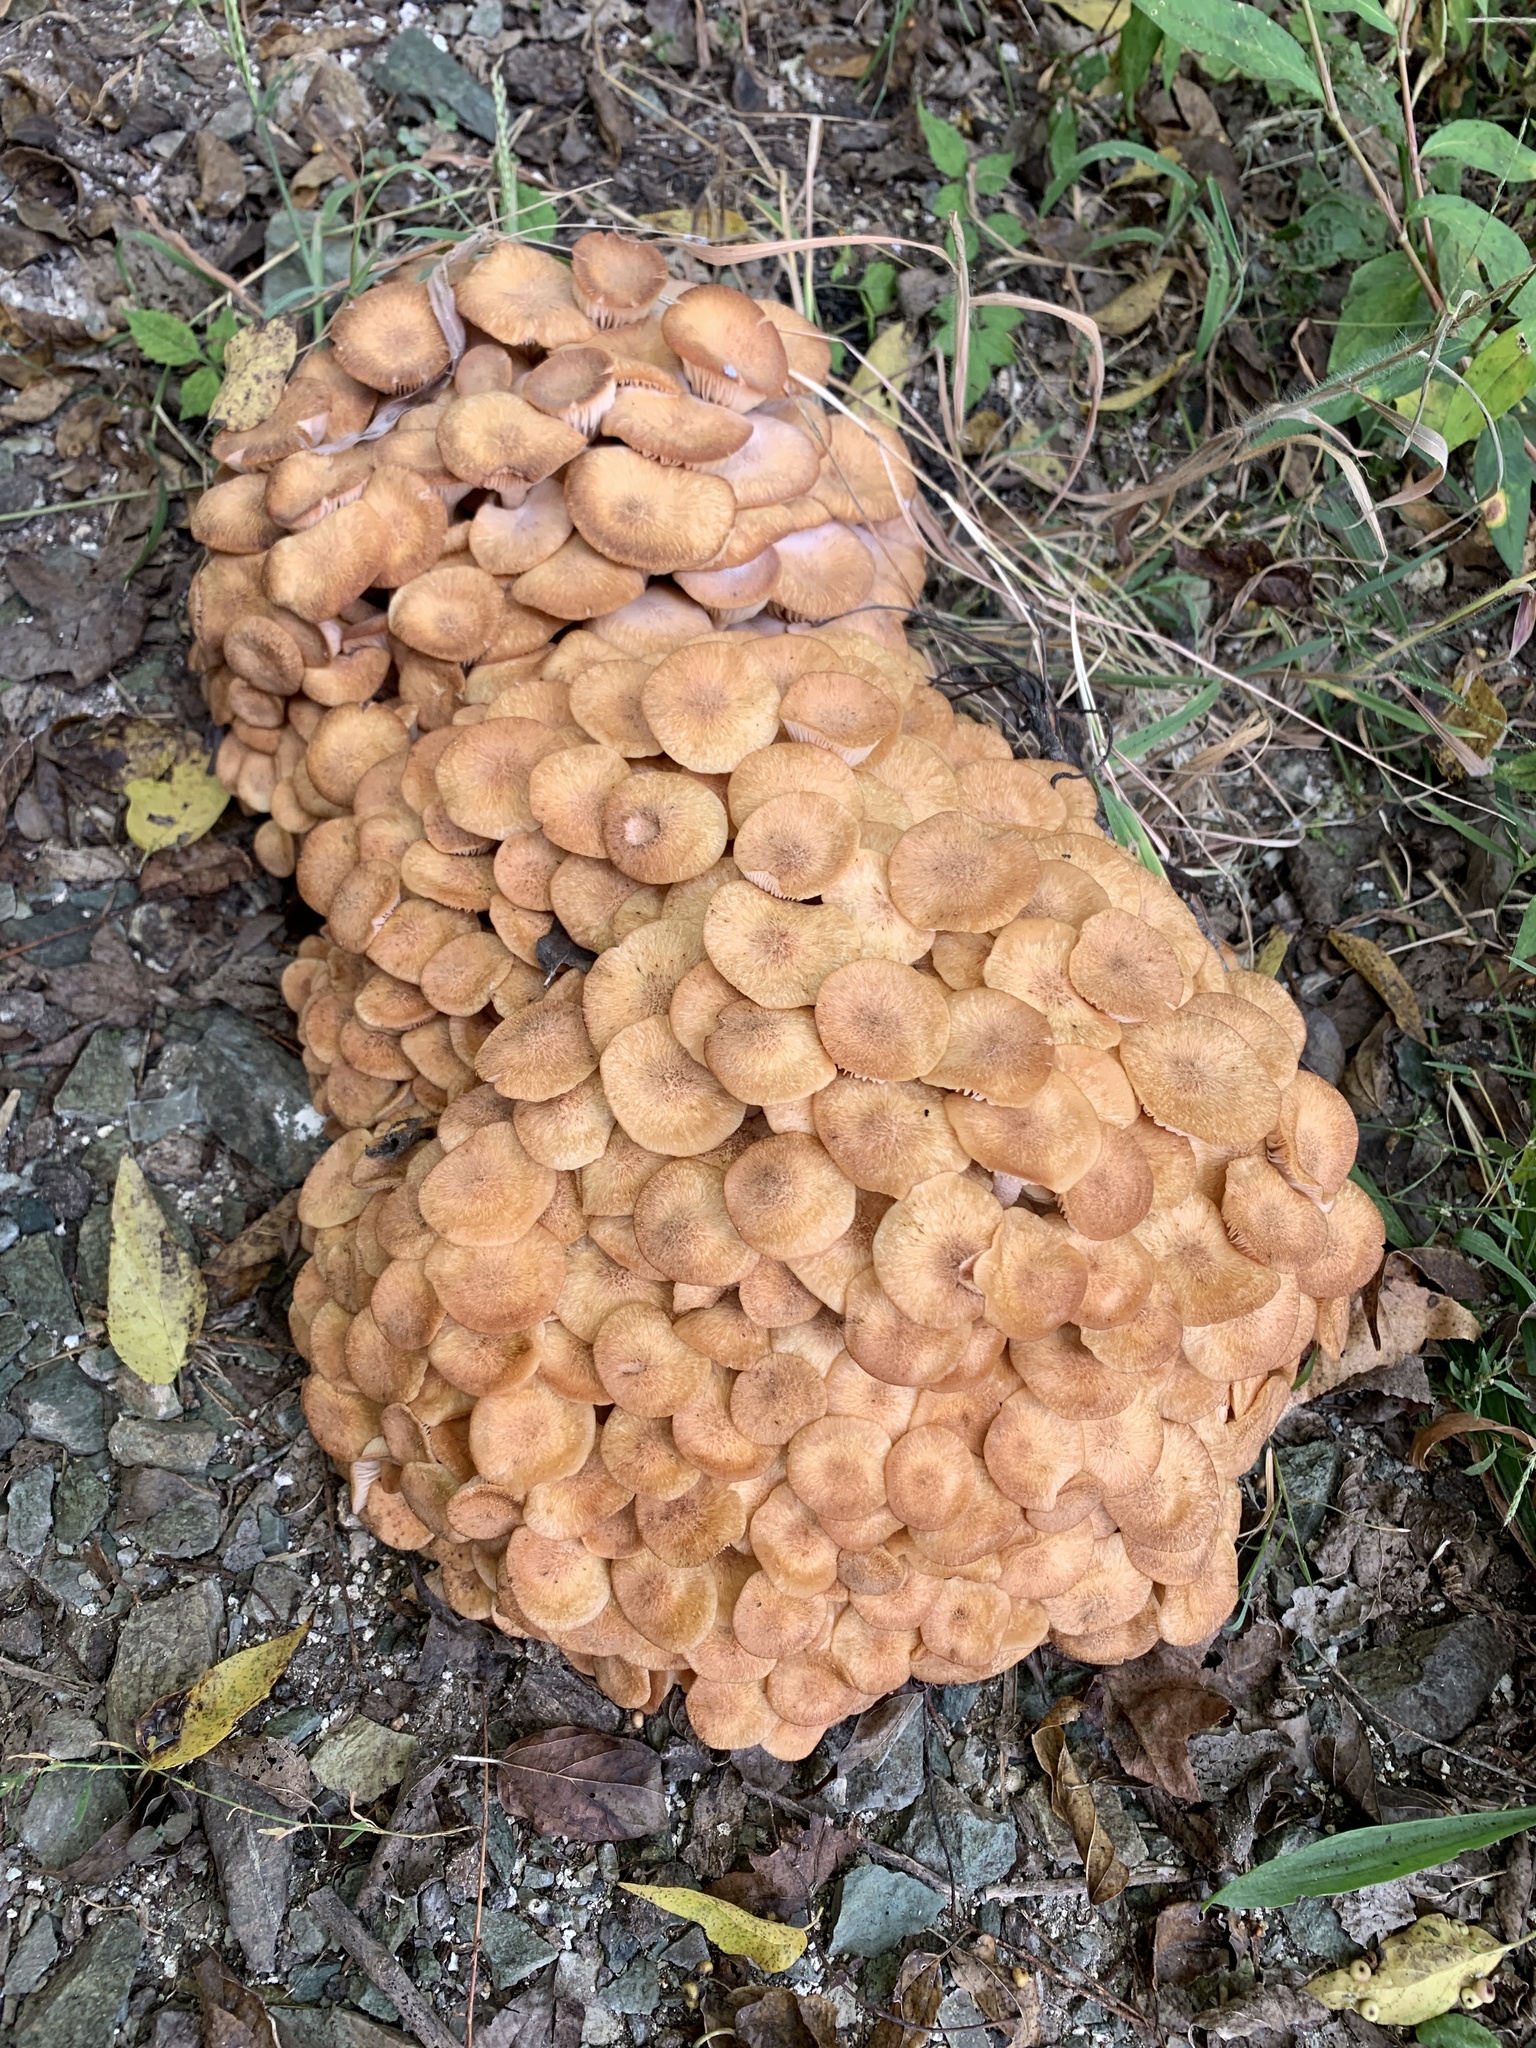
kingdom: Fungi
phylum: Basidiomycota
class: Agaricomycetes
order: Agaricales
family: Physalacriaceae
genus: Desarmillaria
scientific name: Desarmillaria caespitosa
